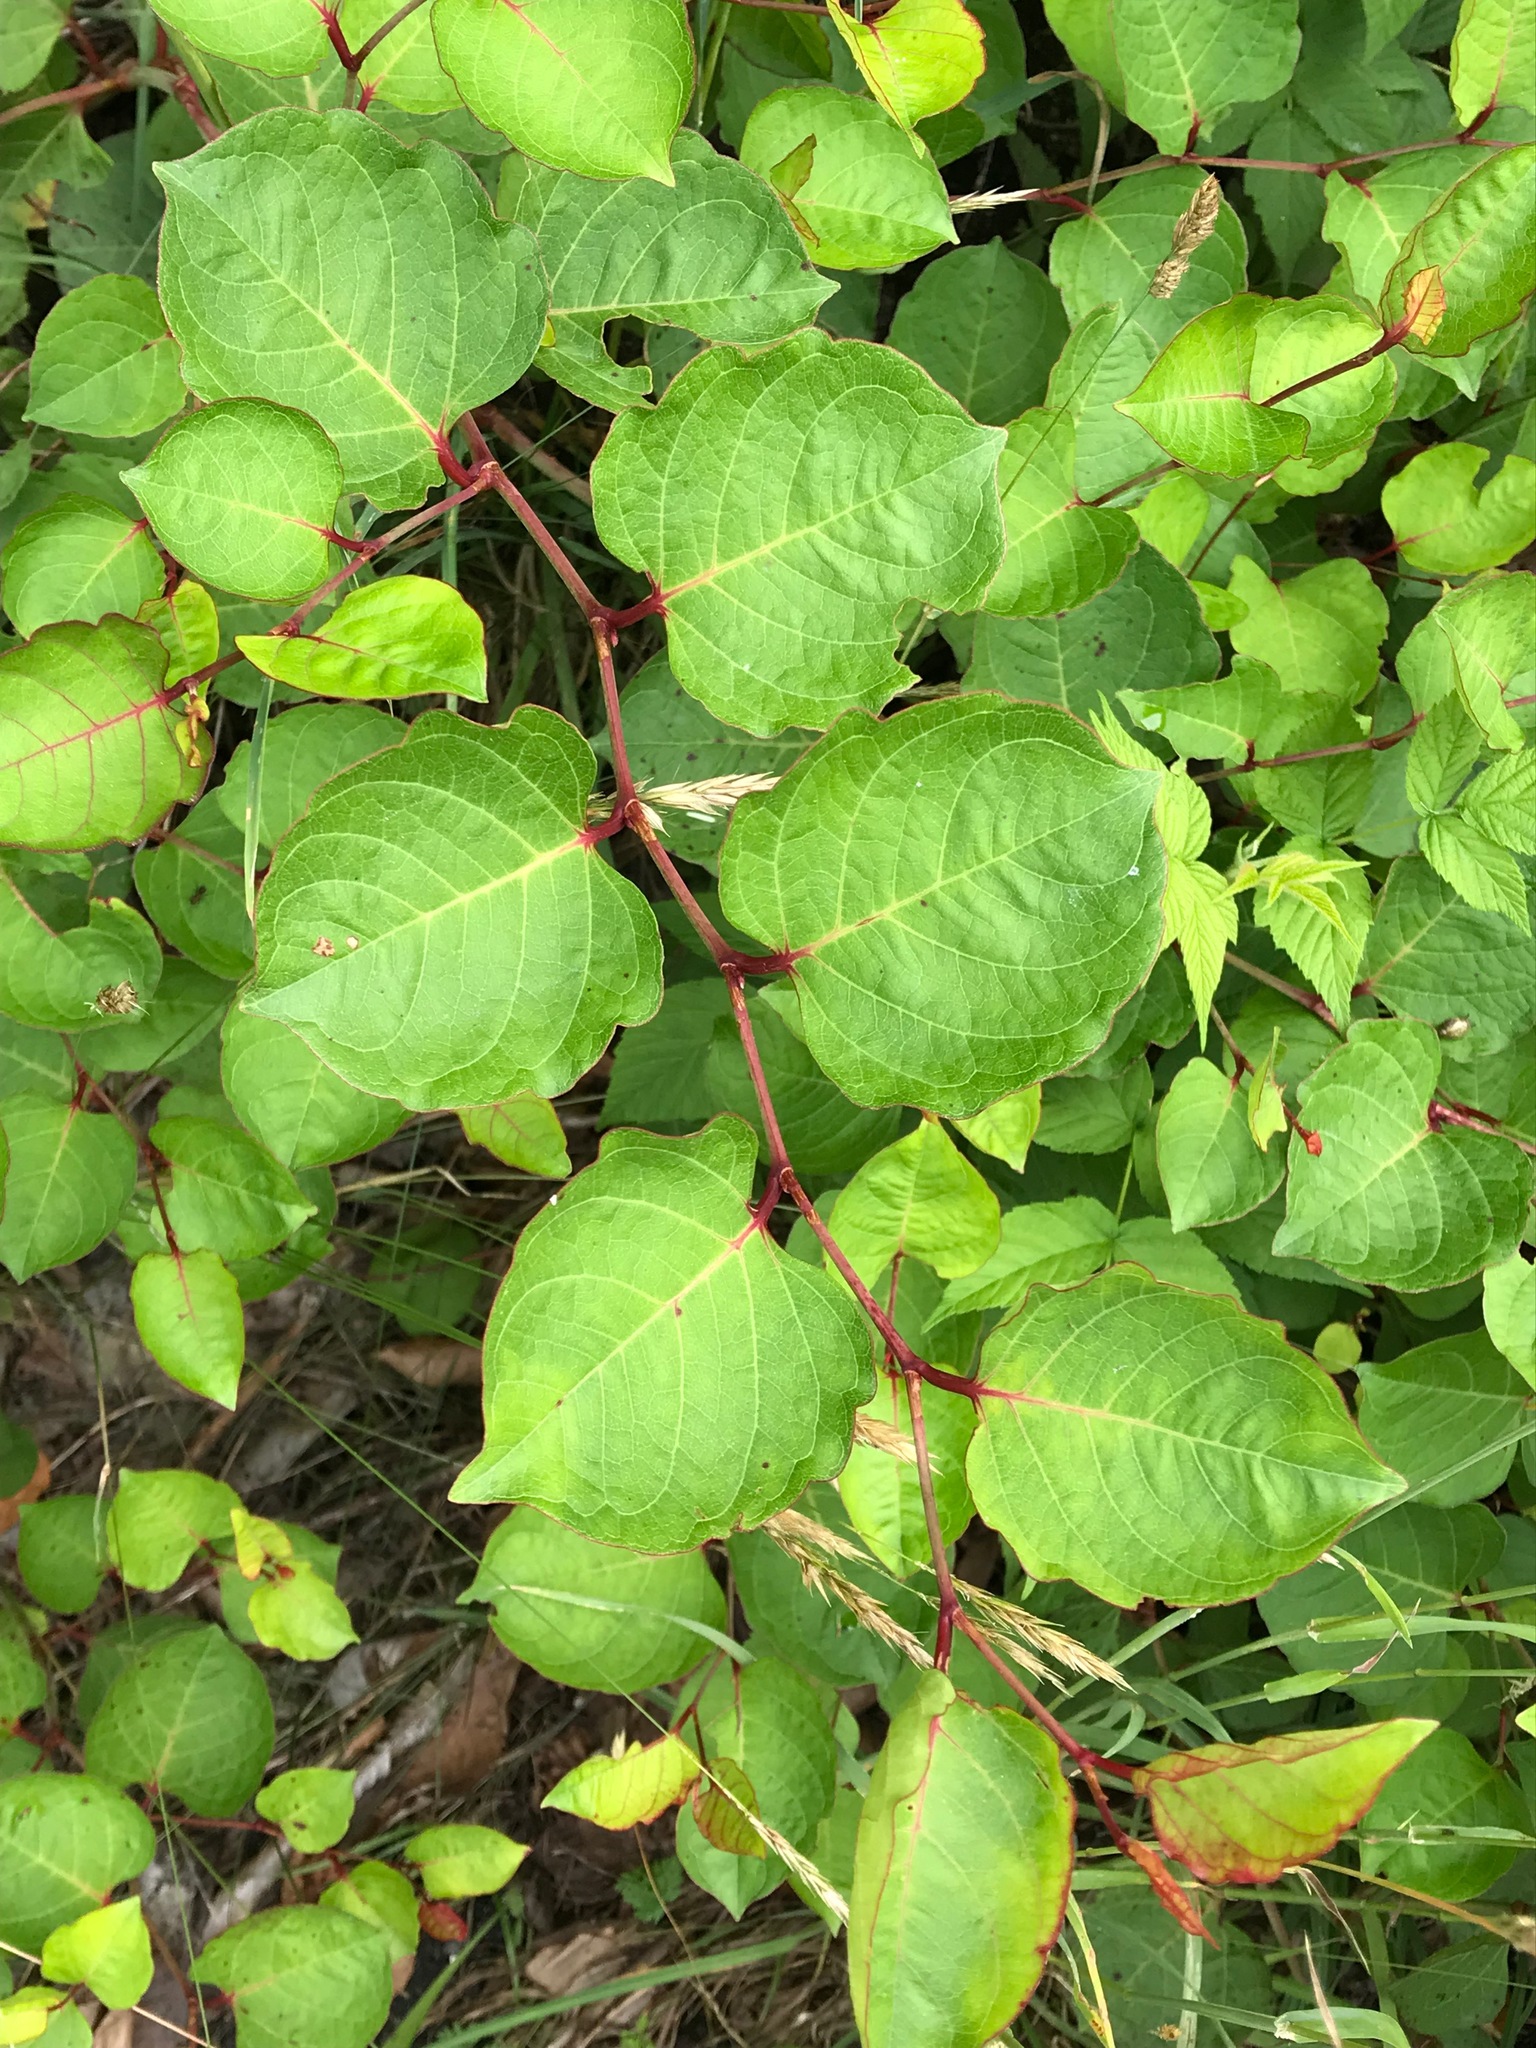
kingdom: Plantae
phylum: Tracheophyta
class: Magnoliopsida
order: Caryophyllales
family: Polygonaceae
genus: Reynoutria
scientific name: Reynoutria japonica
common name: Japanese knotweed
